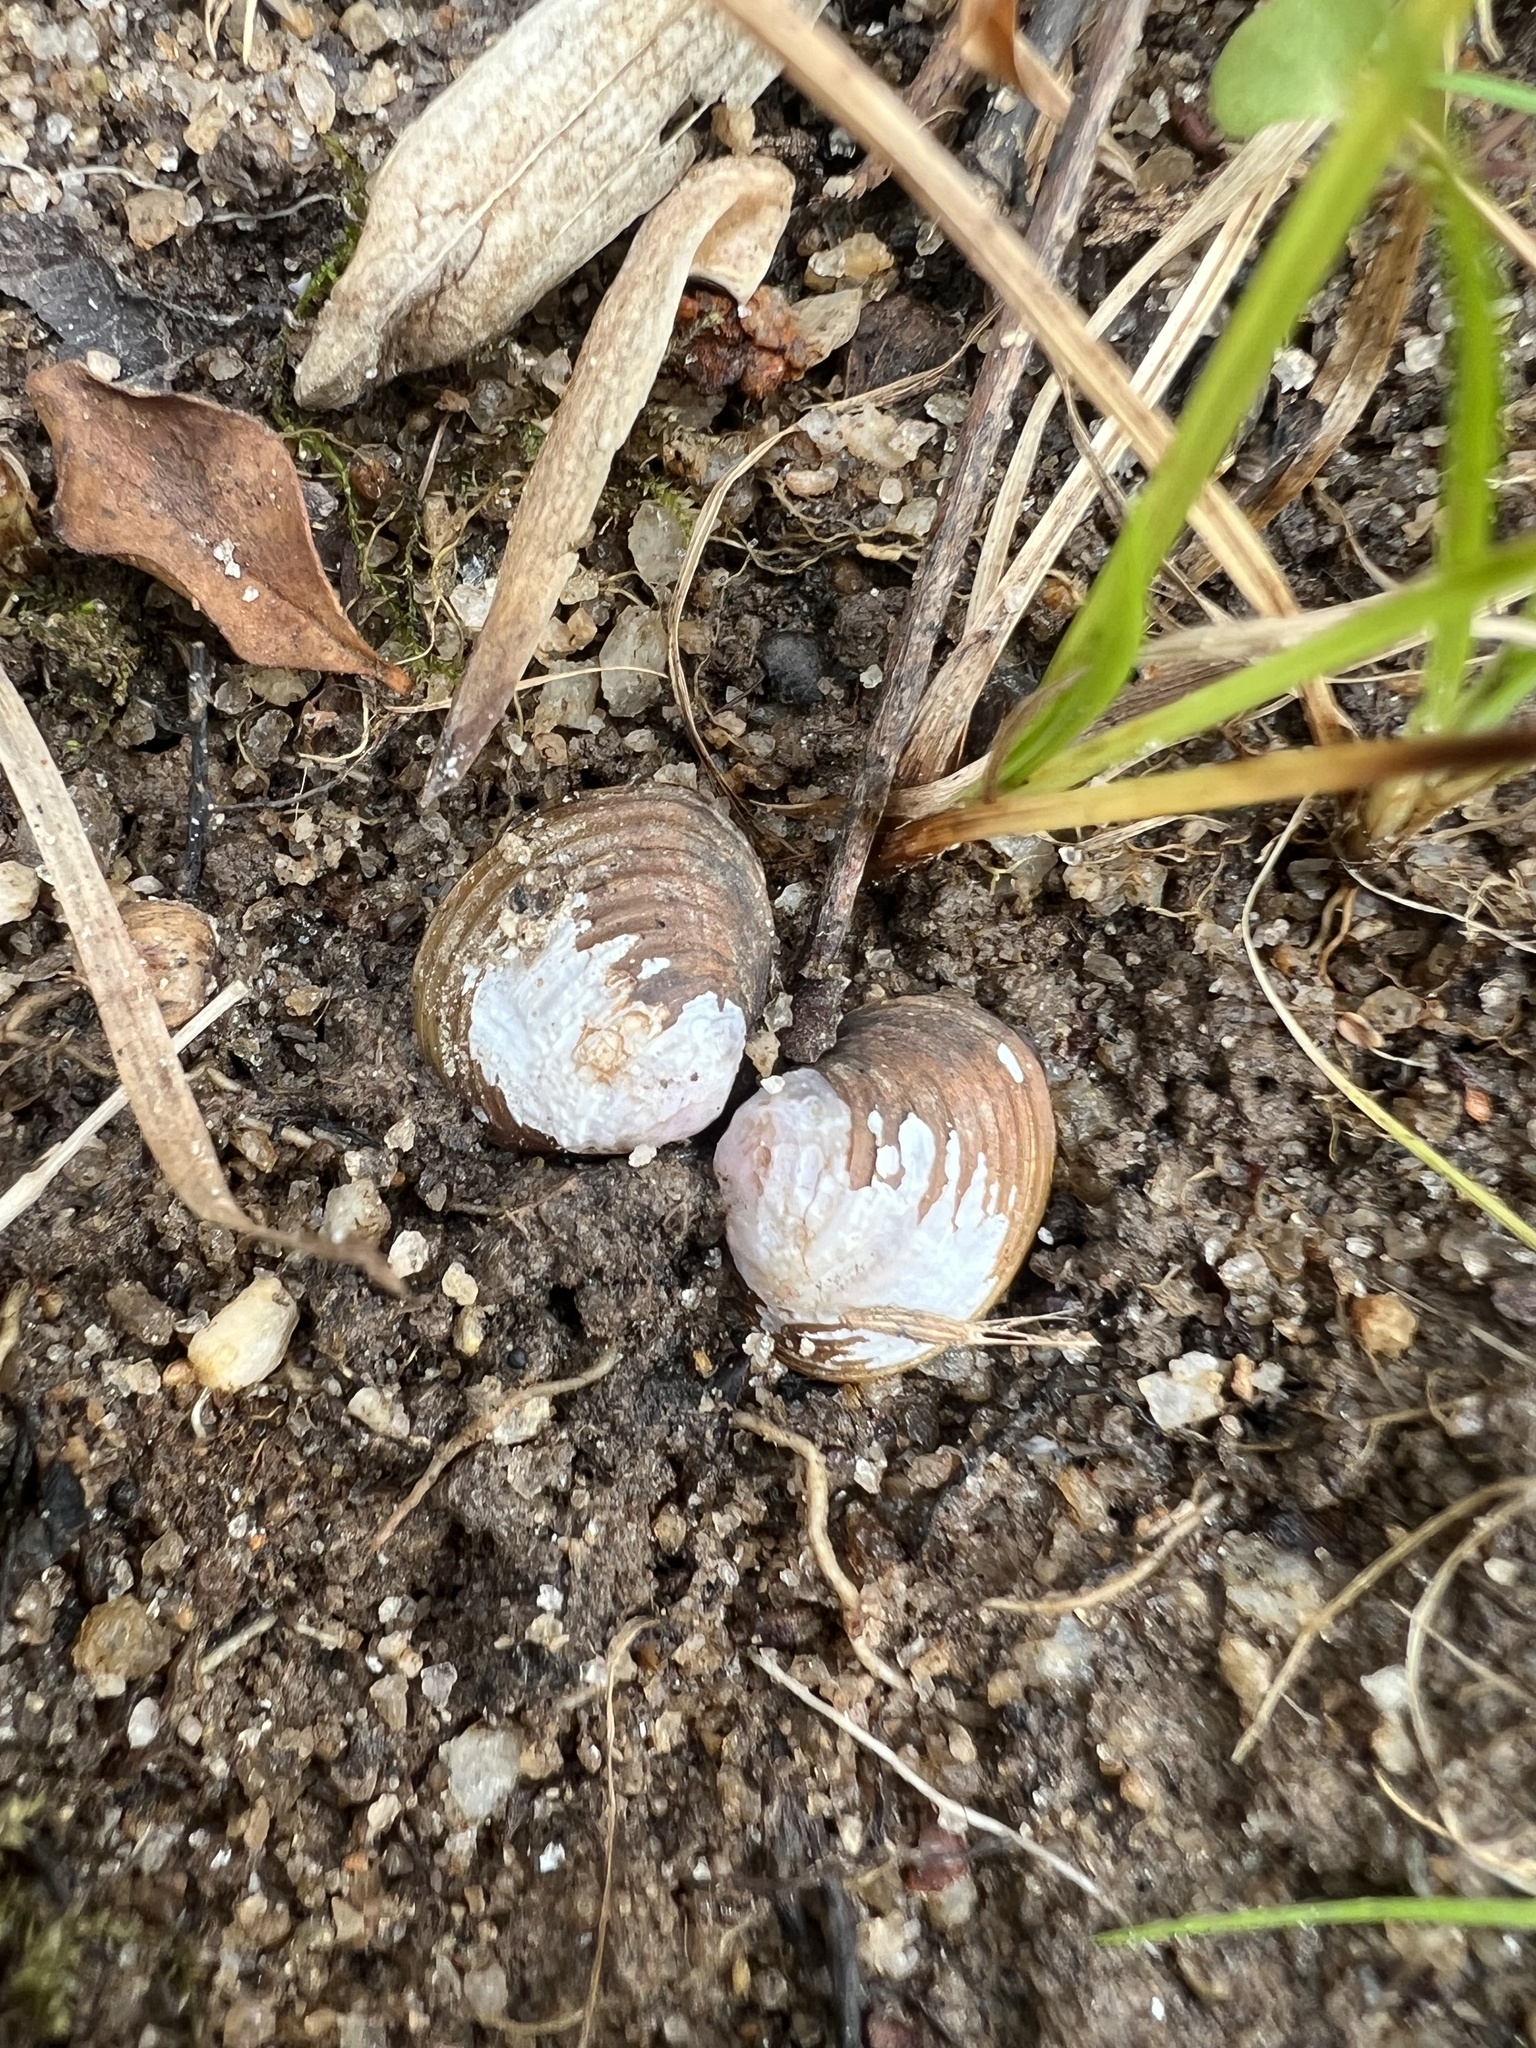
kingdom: Animalia
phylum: Mollusca
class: Bivalvia
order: Venerida
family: Cyrenidae
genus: Corbicula
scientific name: Corbicula fluminea
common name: Asian clam
